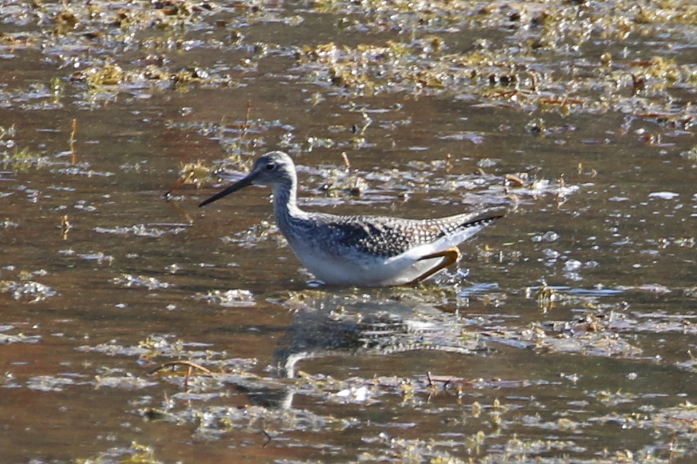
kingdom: Animalia
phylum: Chordata
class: Aves
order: Charadriiformes
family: Scolopacidae
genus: Tringa
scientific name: Tringa melanoleuca
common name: Greater yellowlegs
